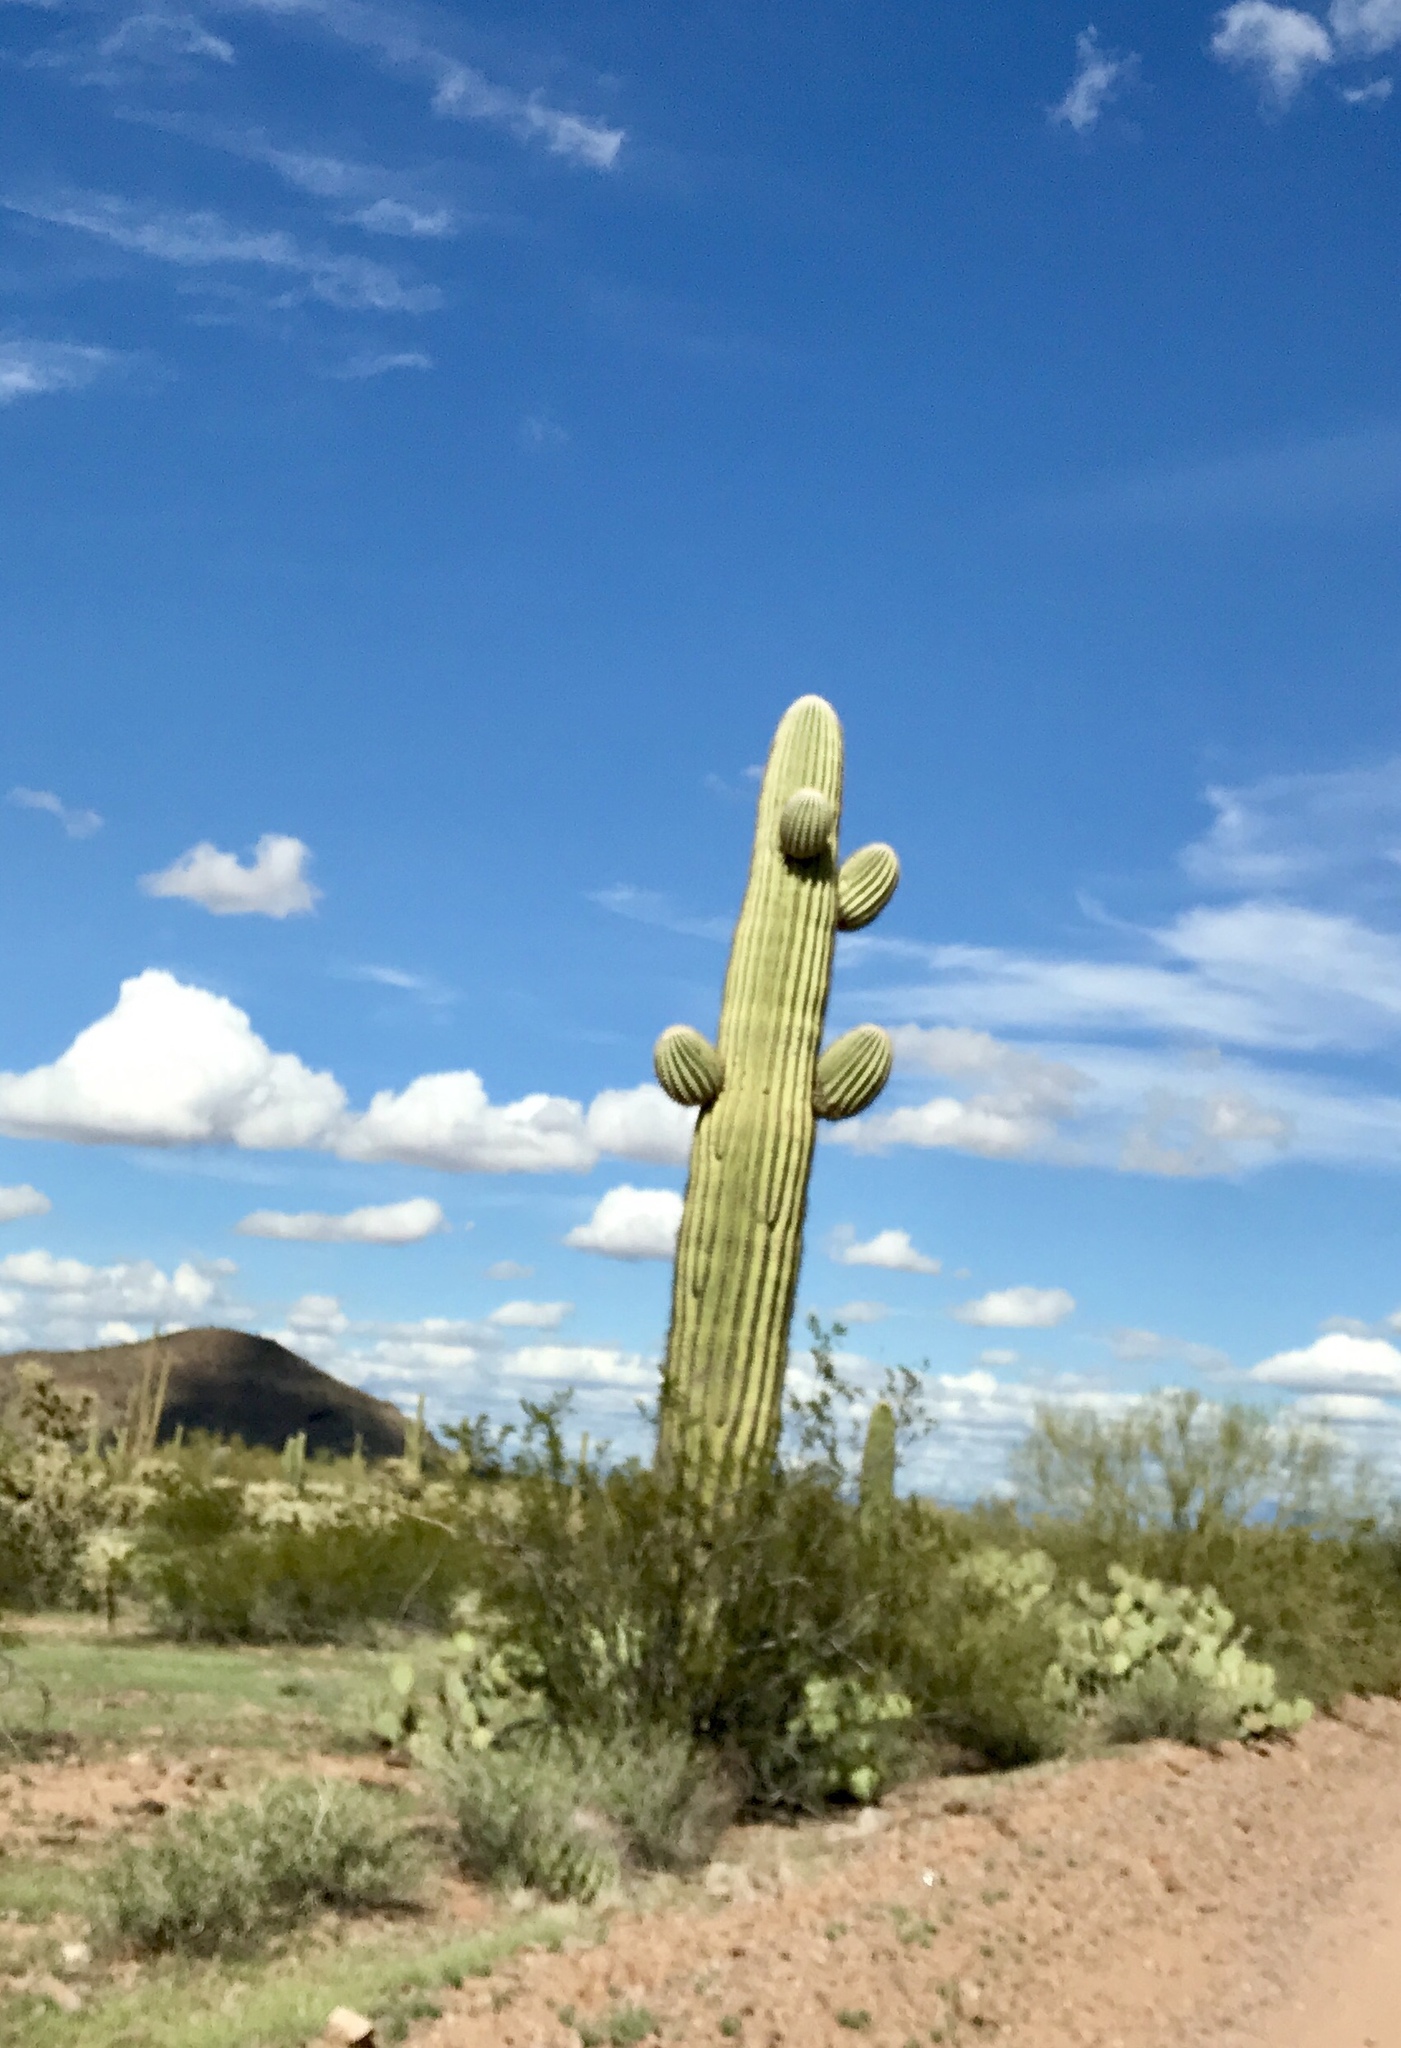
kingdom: Plantae
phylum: Tracheophyta
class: Magnoliopsida
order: Caryophyllales
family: Cactaceae
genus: Carnegiea
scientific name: Carnegiea gigantea
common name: Saguaro
